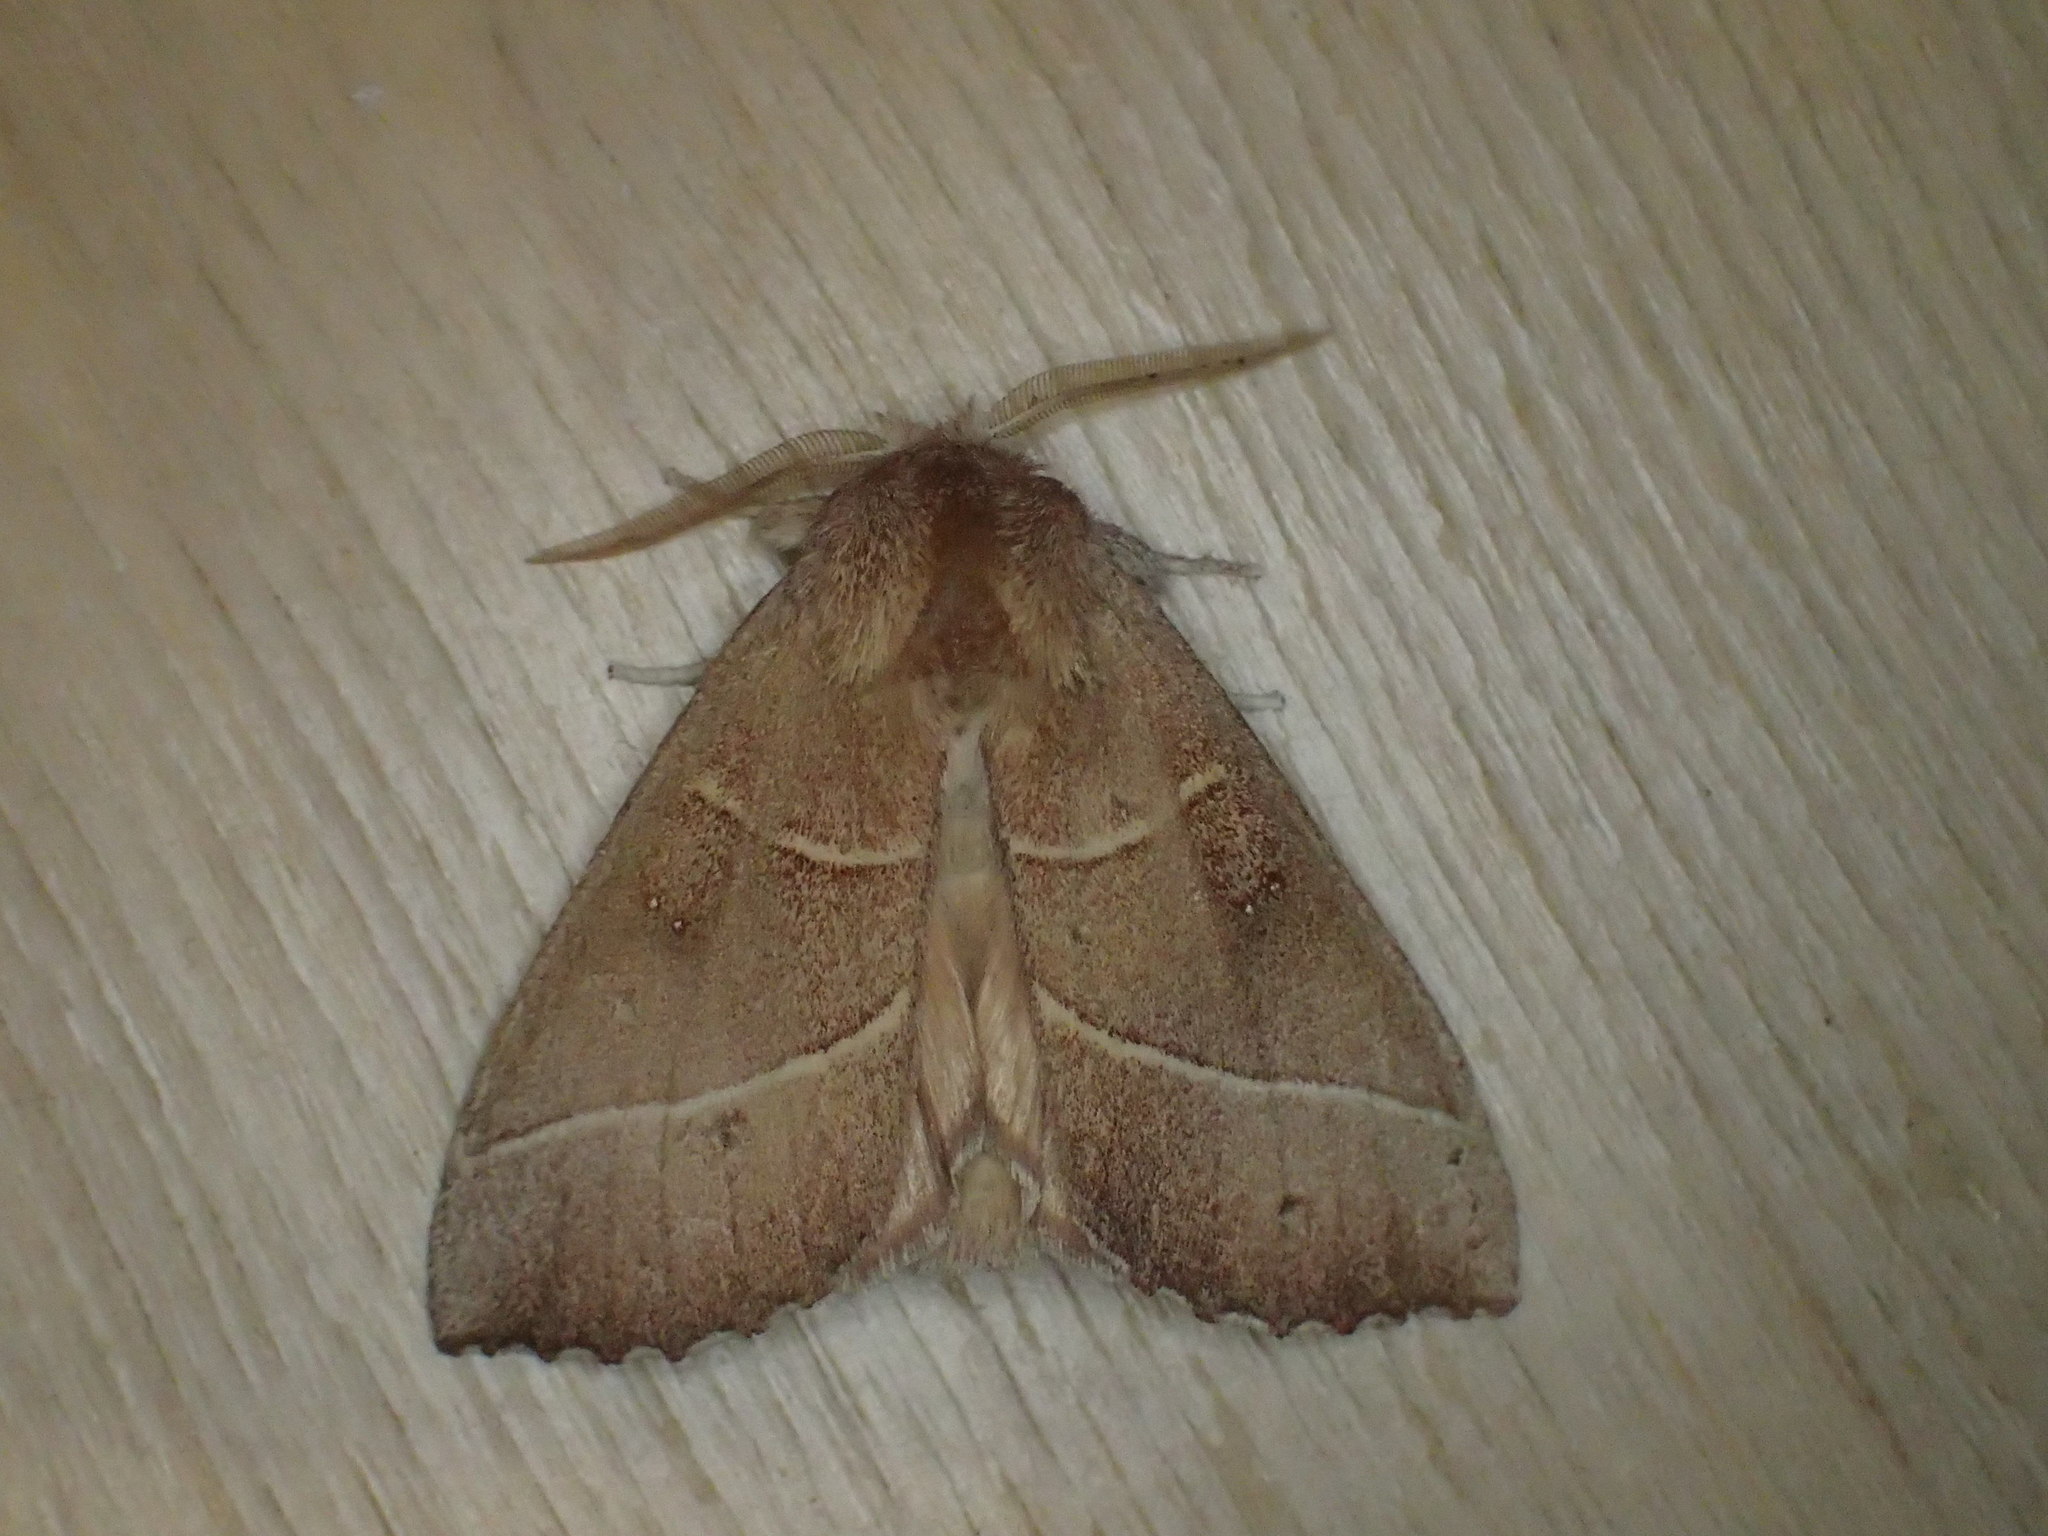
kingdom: Animalia
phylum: Arthropoda
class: Insecta
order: Lepidoptera
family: Notodontidae
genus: Nadata
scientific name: Nadata gibbosa
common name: White-dotted prominent
